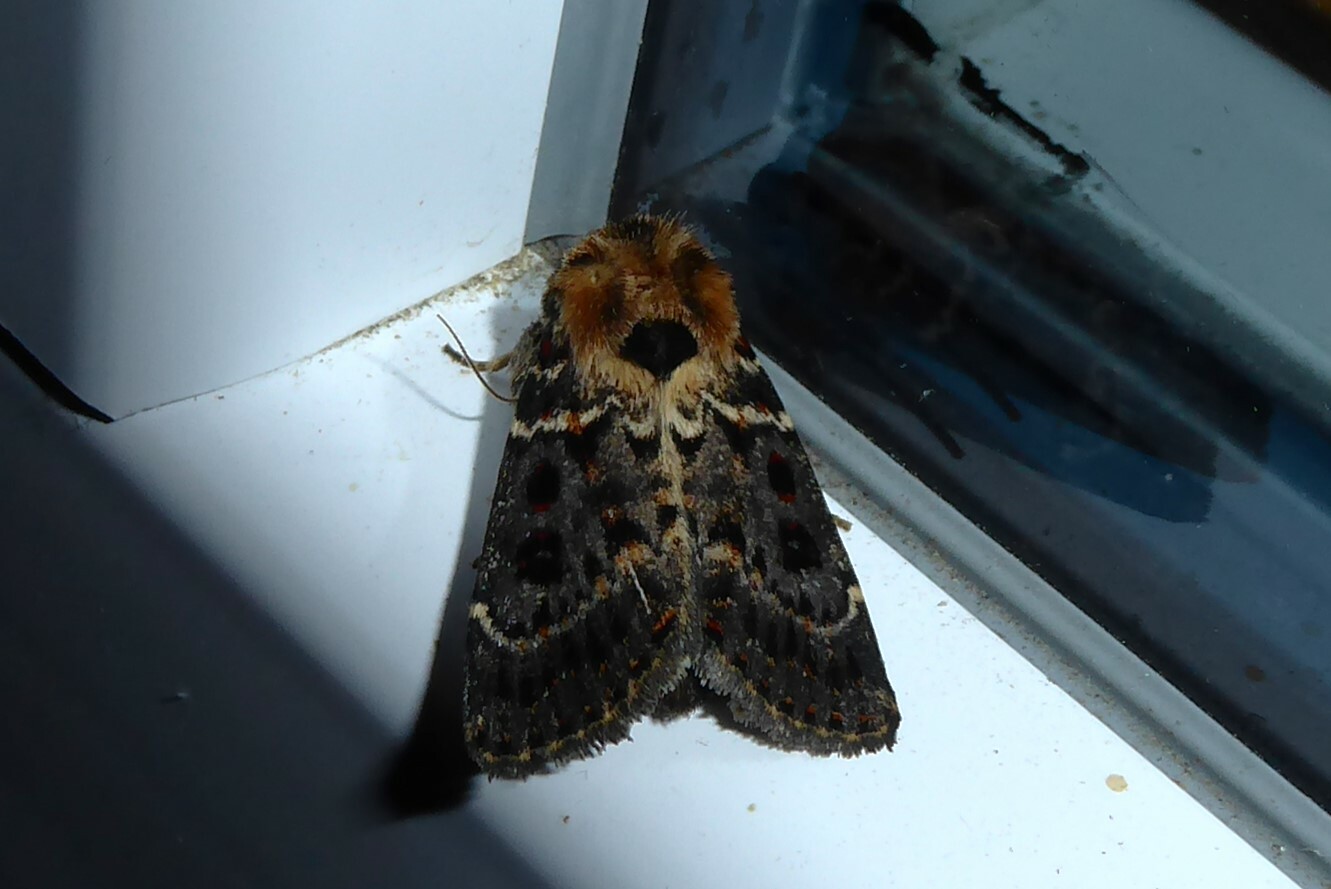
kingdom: Animalia
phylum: Arthropoda
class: Insecta
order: Lepidoptera
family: Noctuidae
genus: Proteuxoa
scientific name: Proteuxoa sanguinipuncta
